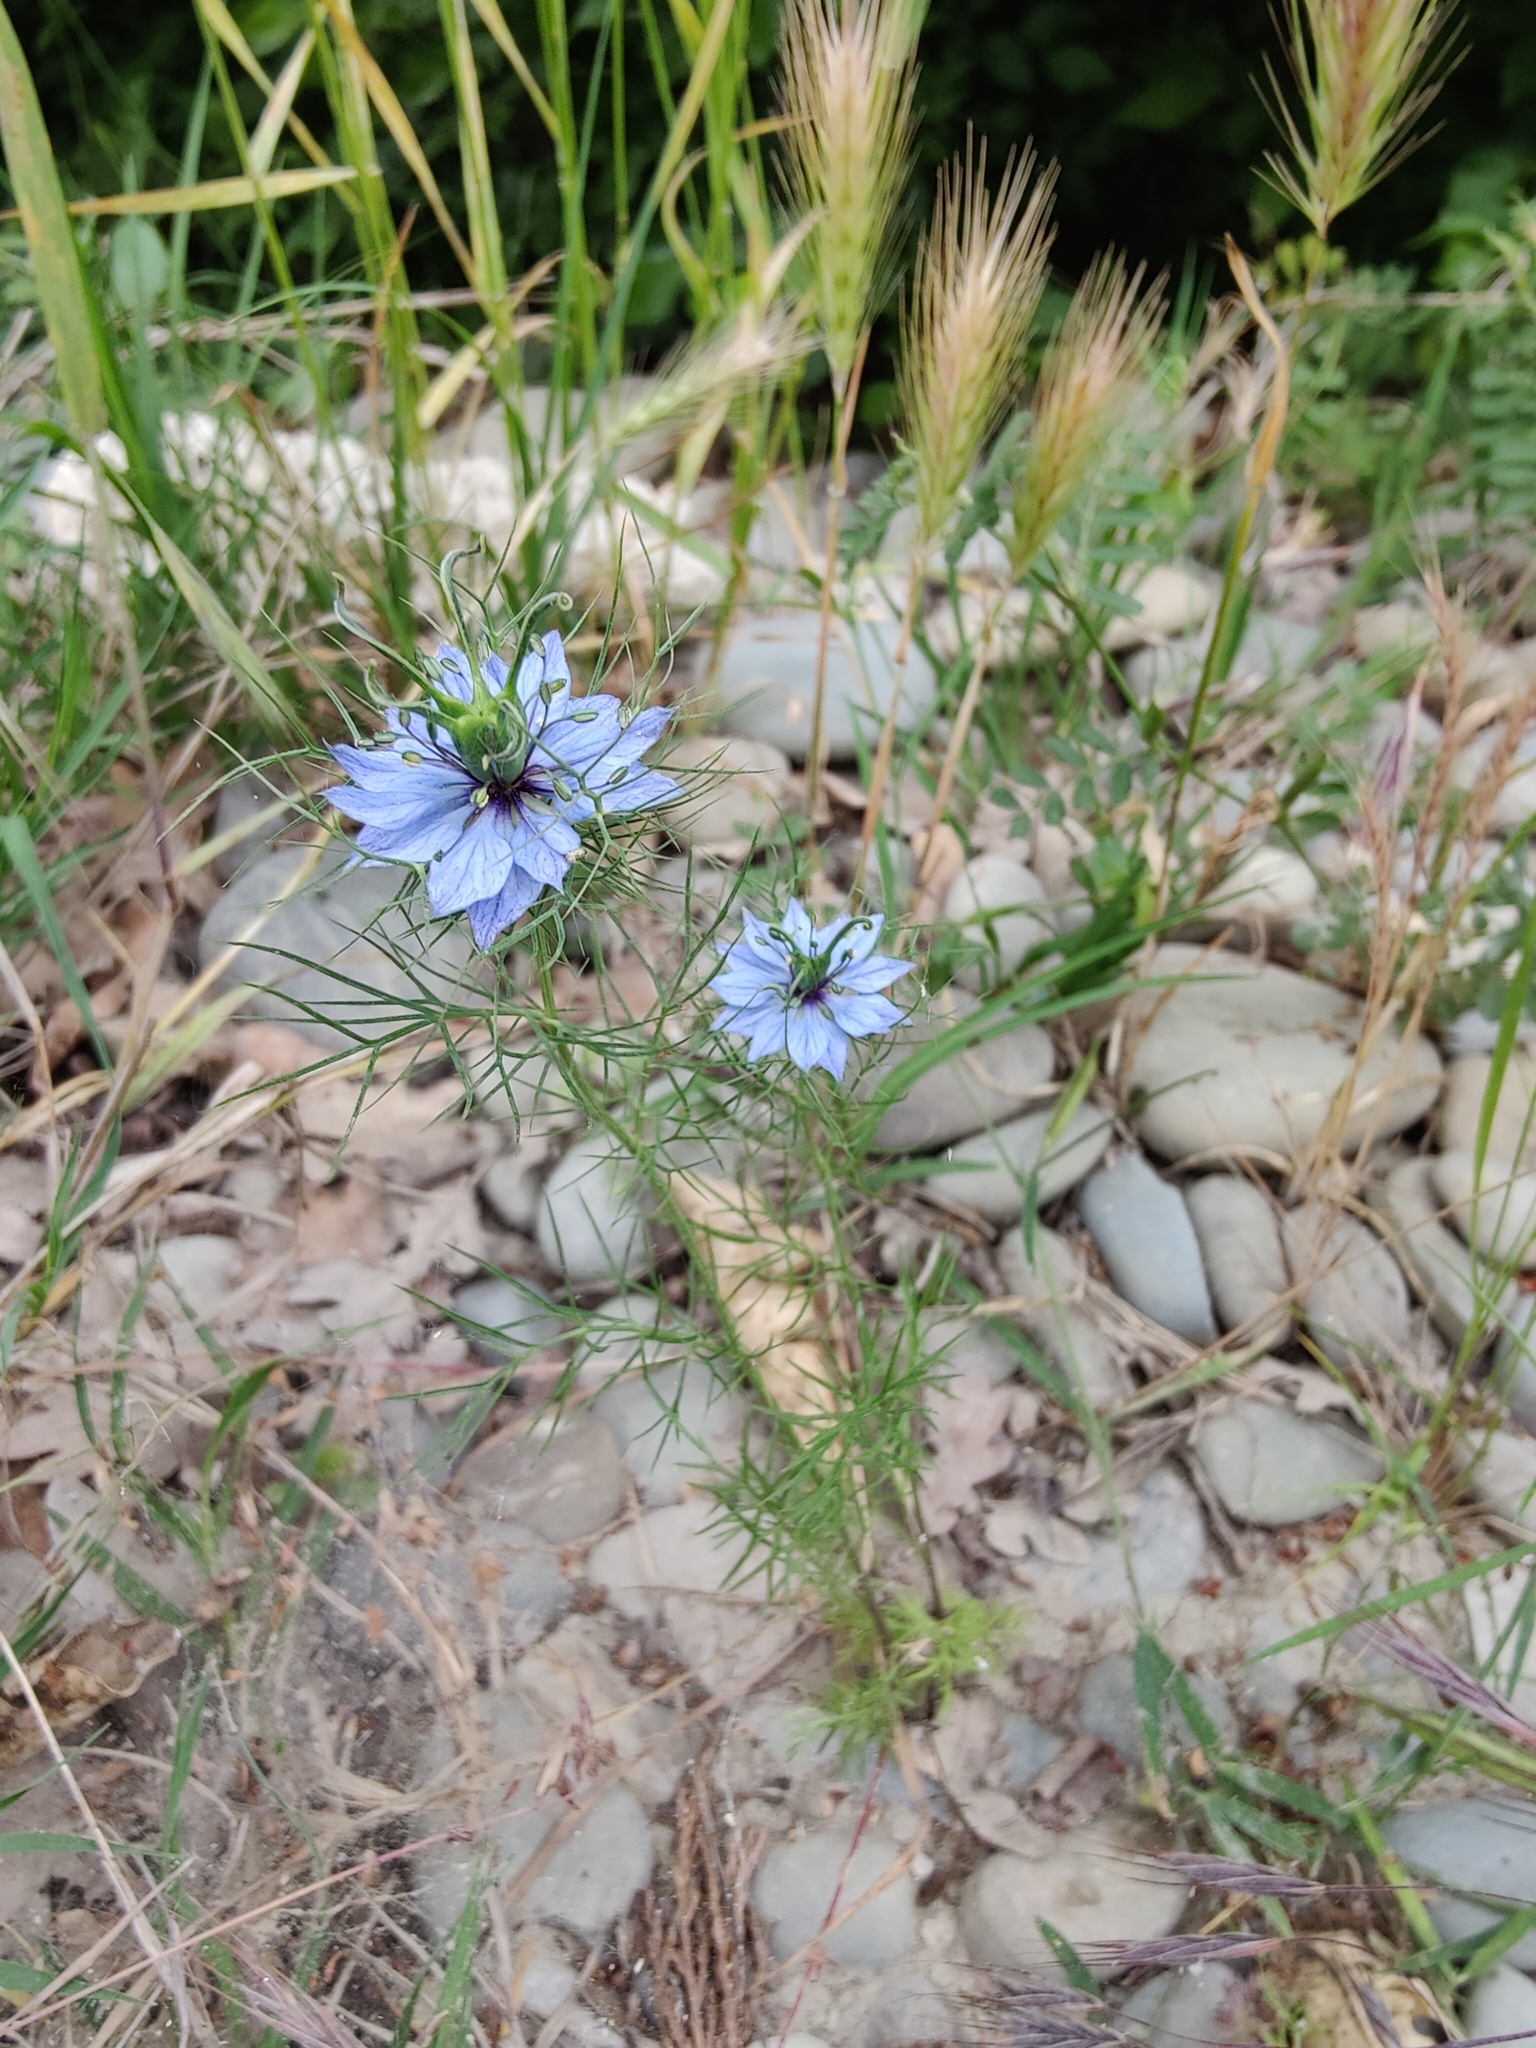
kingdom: Plantae
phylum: Tracheophyta
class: Magnoliopsida
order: Ranunculales
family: Ranunculaceae
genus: Nigella
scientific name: Nigella damascena
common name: Love-in-a-mist
